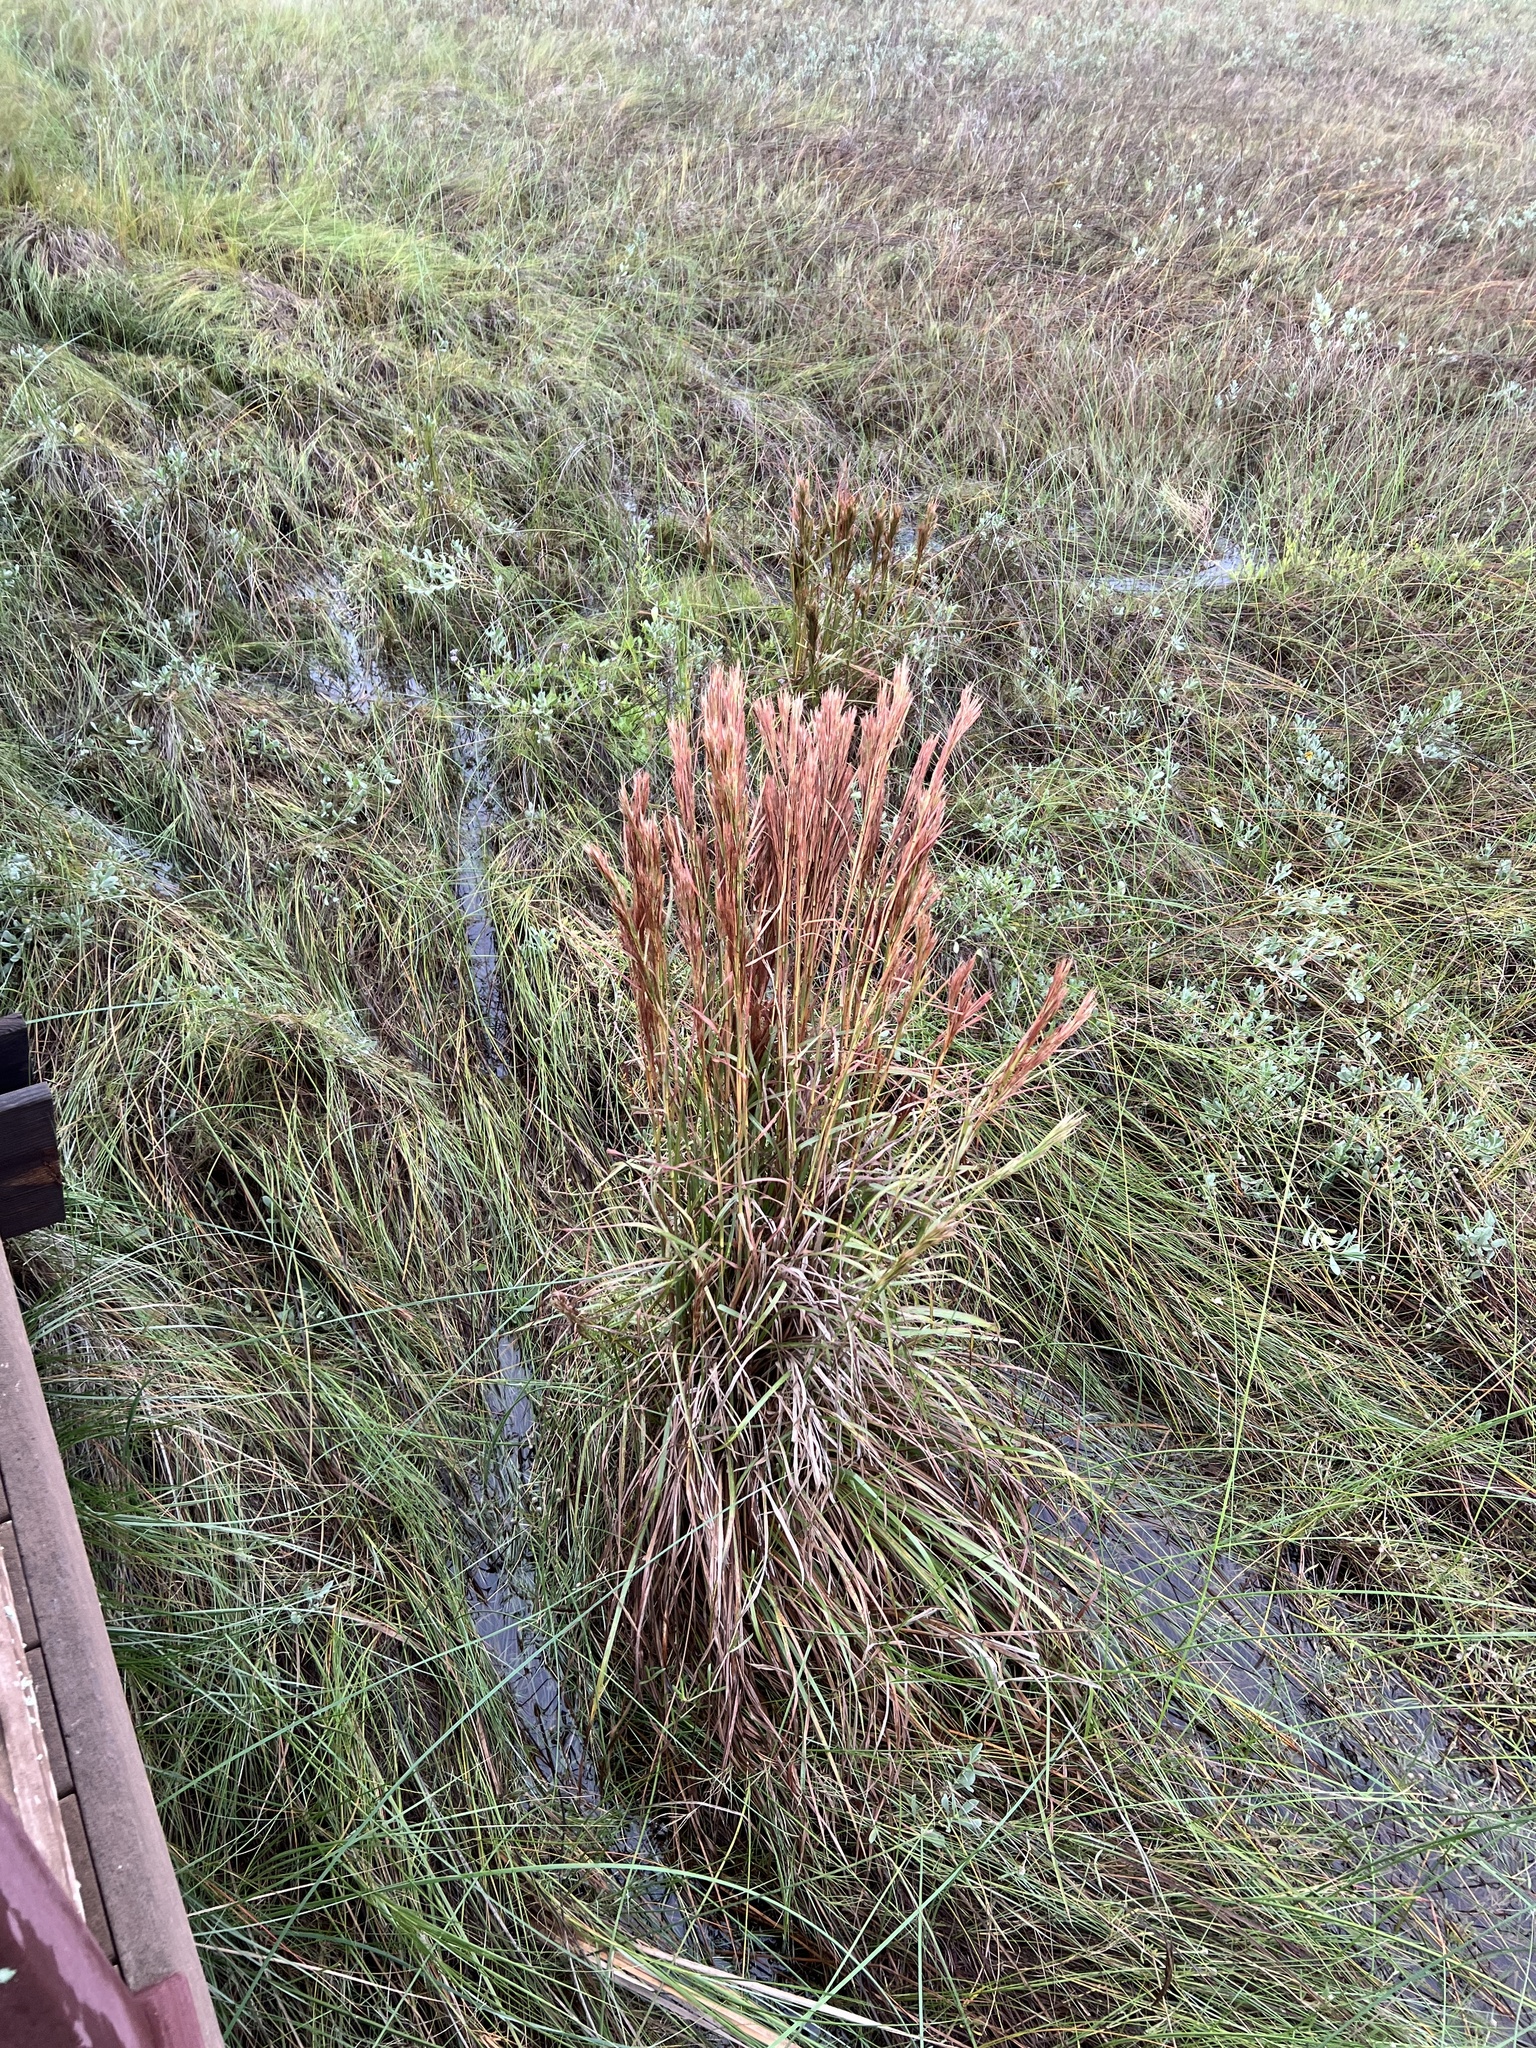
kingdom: Plantae
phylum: Tracheophyta
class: Liliopsida
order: Poales
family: Poaceae
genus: Andropogon
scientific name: Andropogon tenuispatheus
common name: Bushy bluestem
